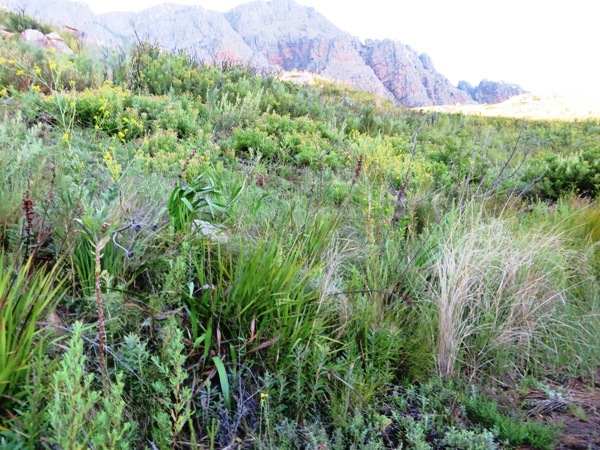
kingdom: Plantae
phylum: Tracheophyta
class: Liliopsida
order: Asparagales
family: Iridaceae
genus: Aristea
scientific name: Aristea capitata
